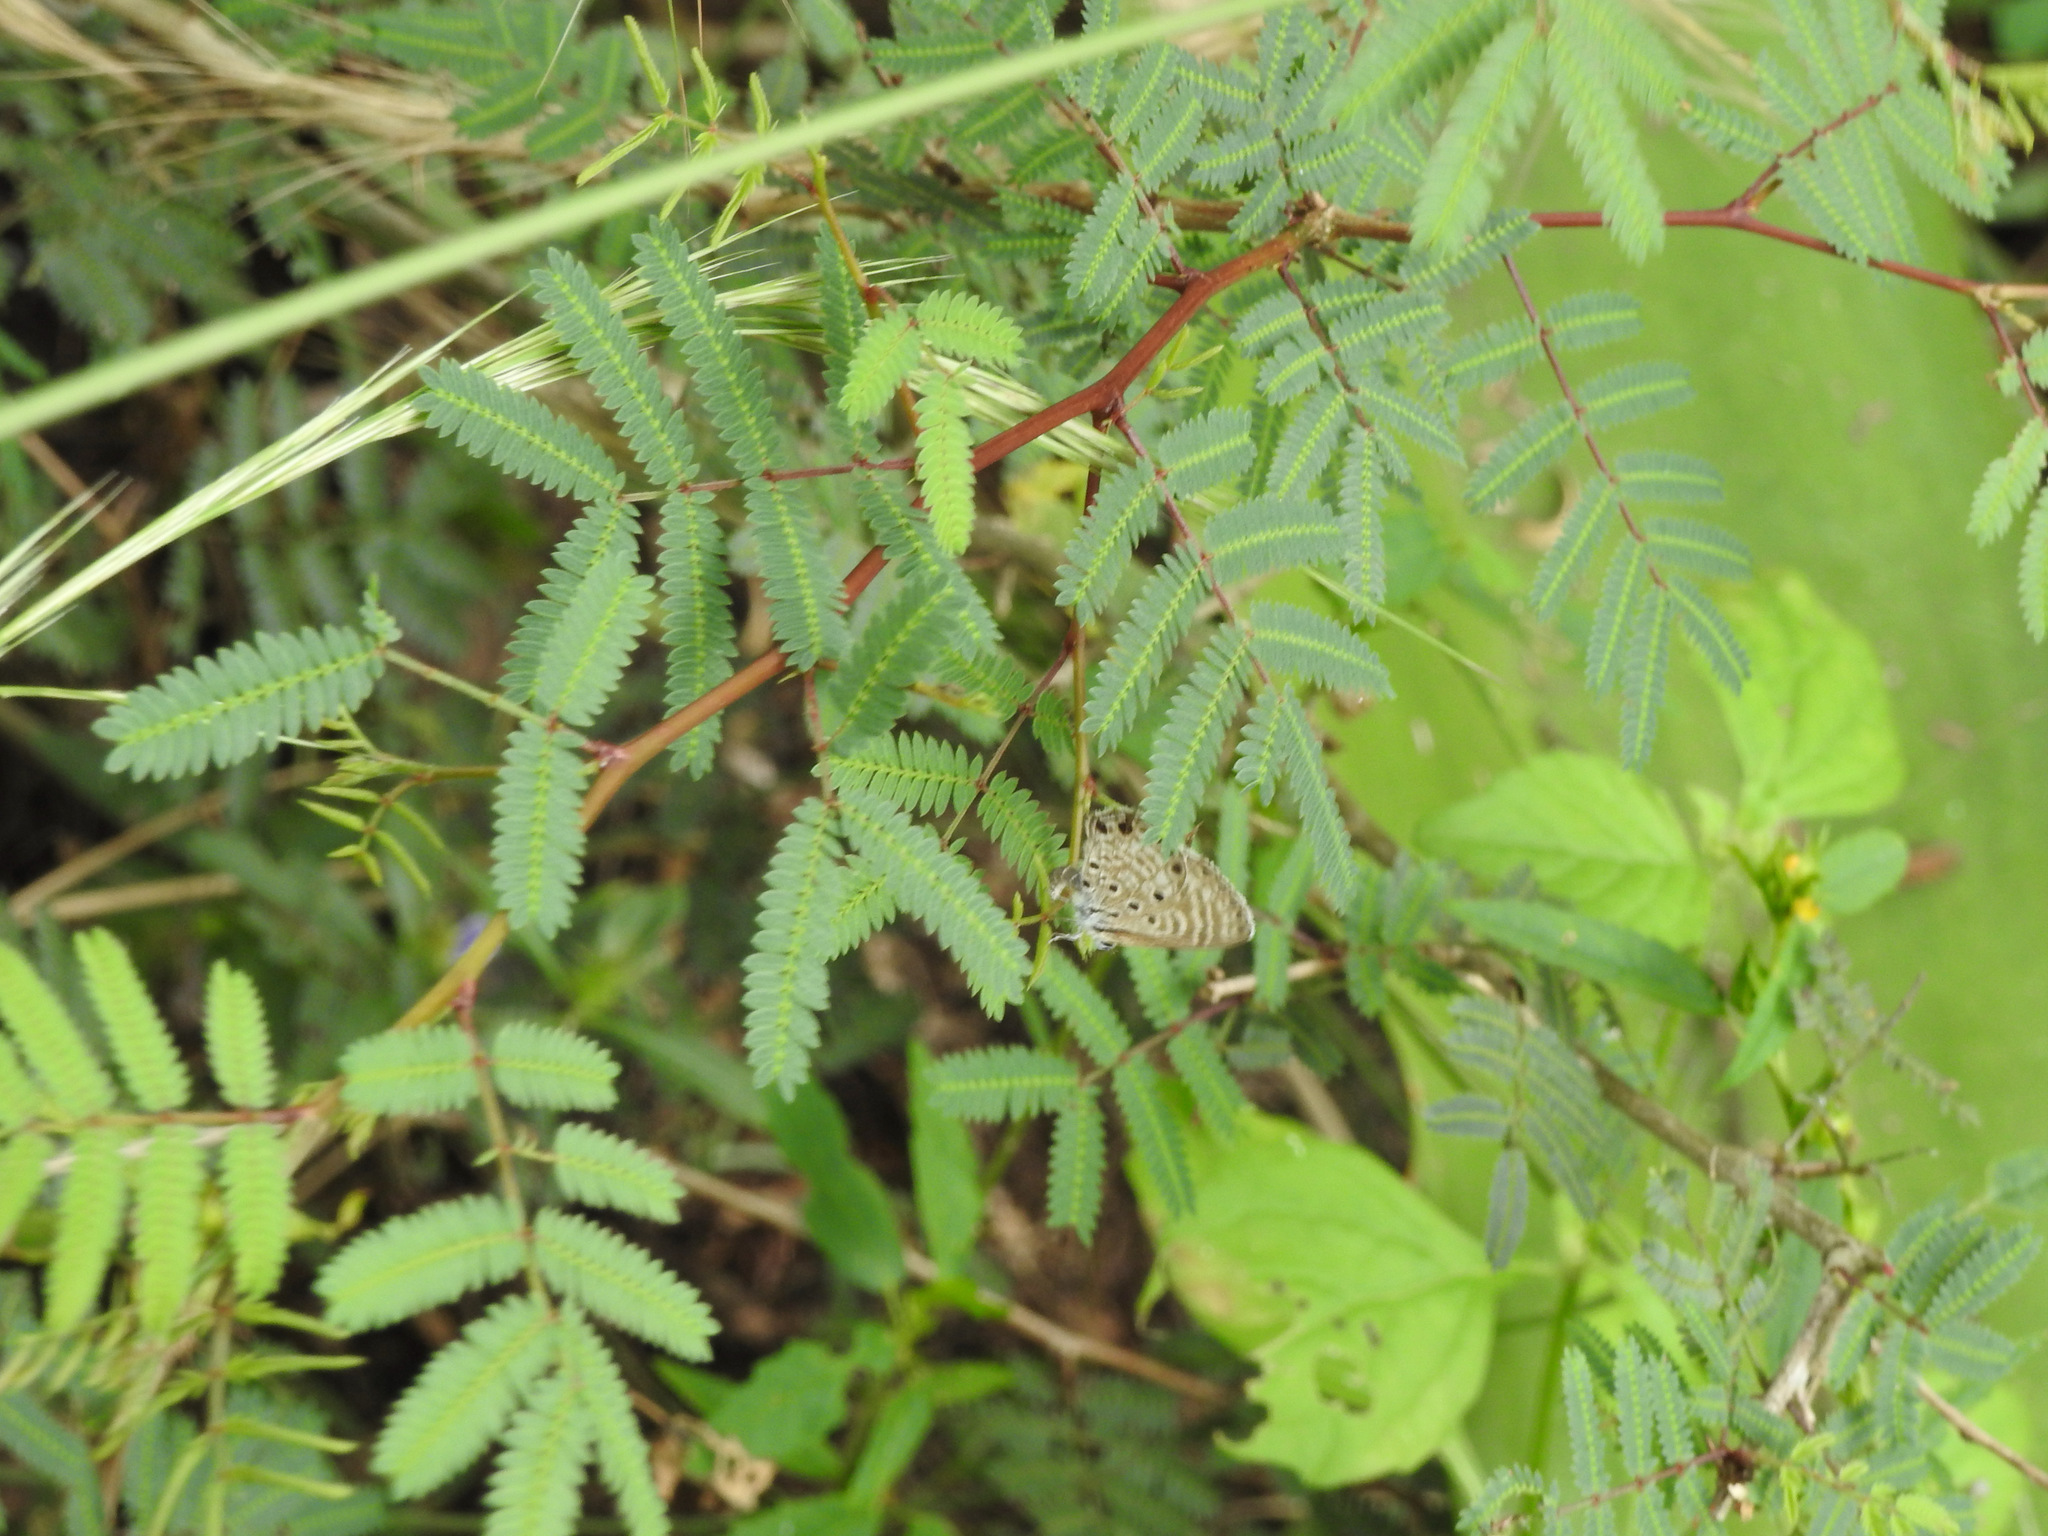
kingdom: Animalia
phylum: Arthropoda
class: Insecta
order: Lepidoptera
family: Lycaenidae
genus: Azanus
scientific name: Azanus jesous
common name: African babul blue
